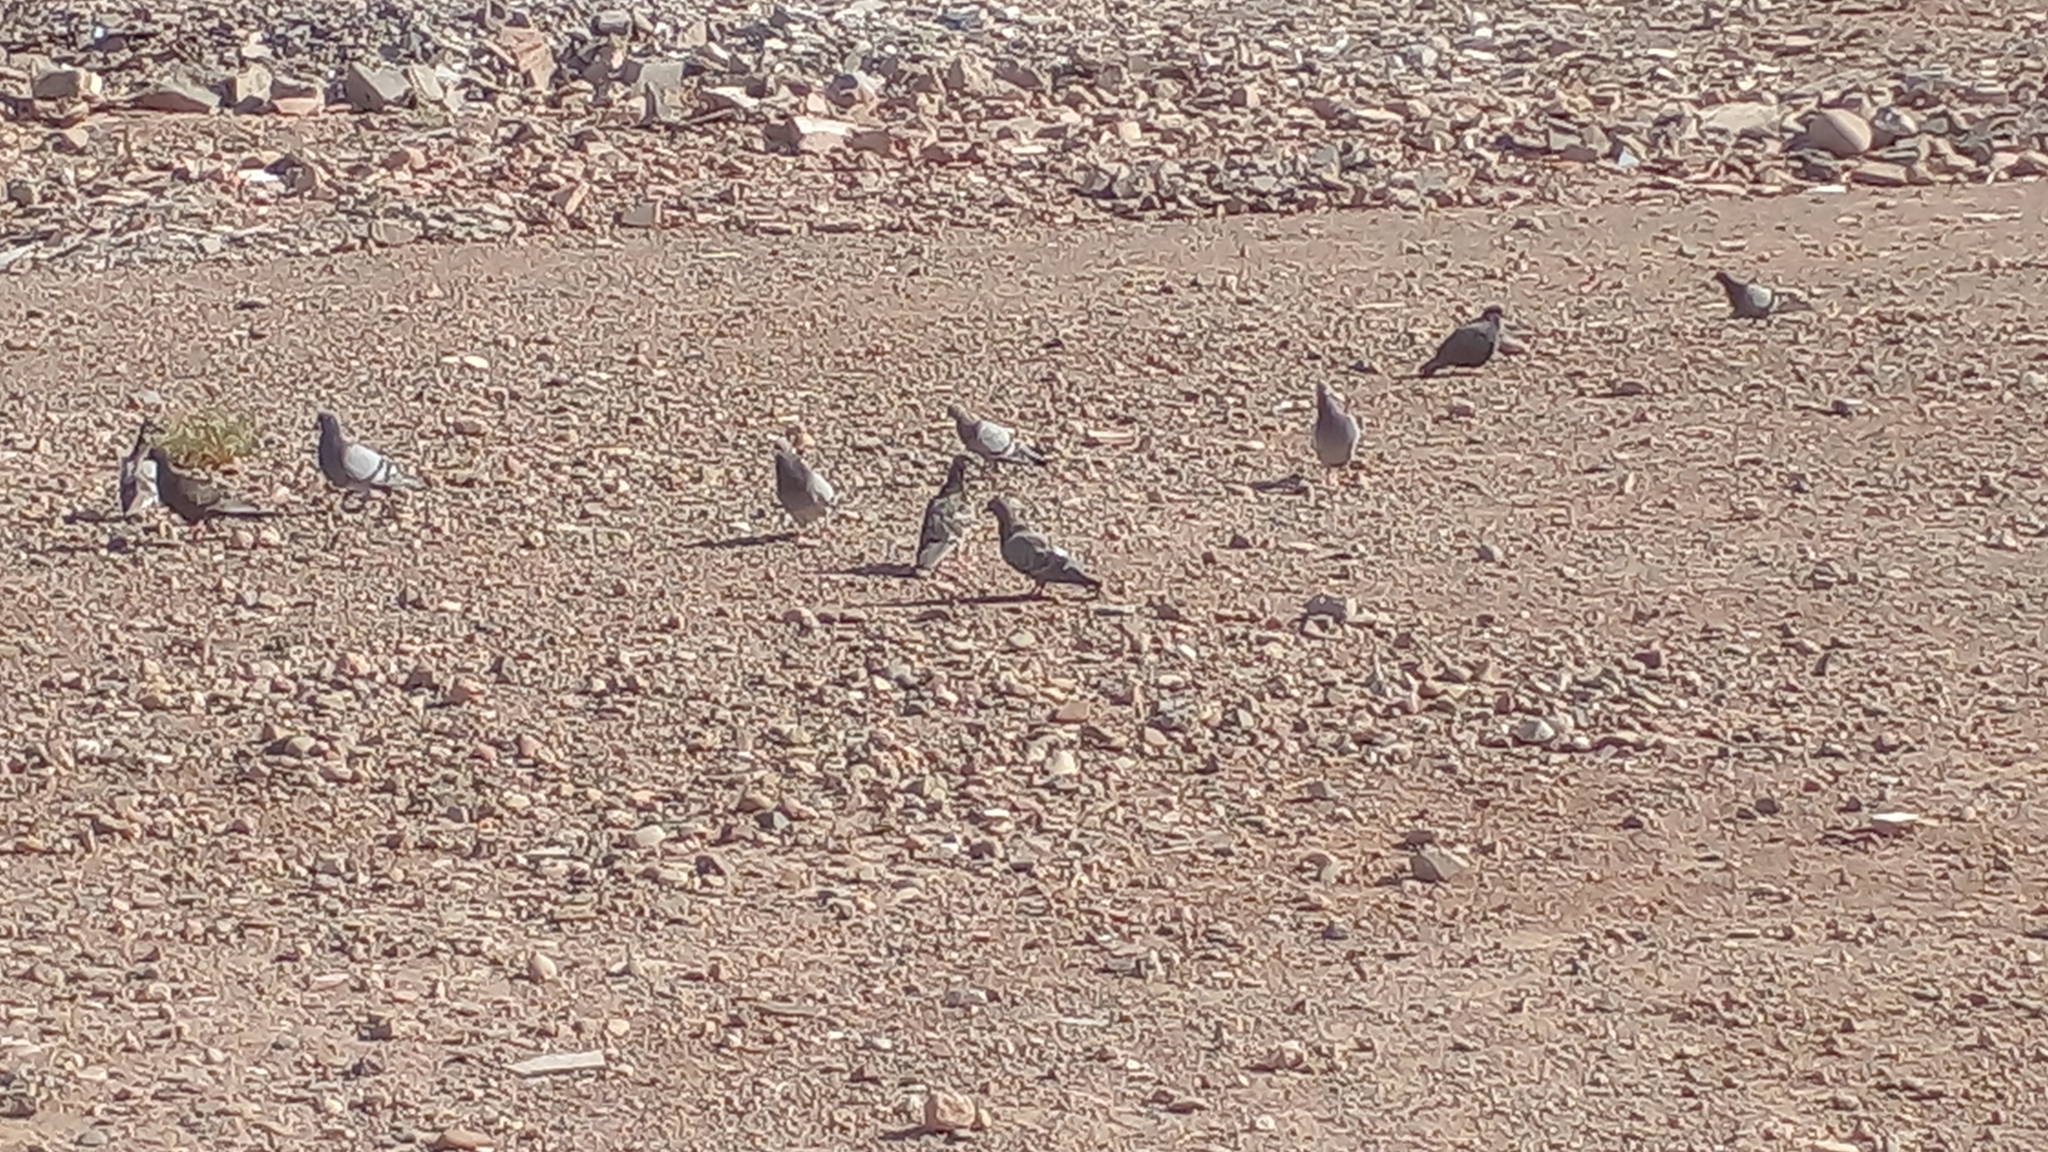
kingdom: Animalia
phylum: Chordata
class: Aves
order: Columbiformes
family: Columbidae
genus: Columba
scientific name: Columba livia
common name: Rock pigeon
